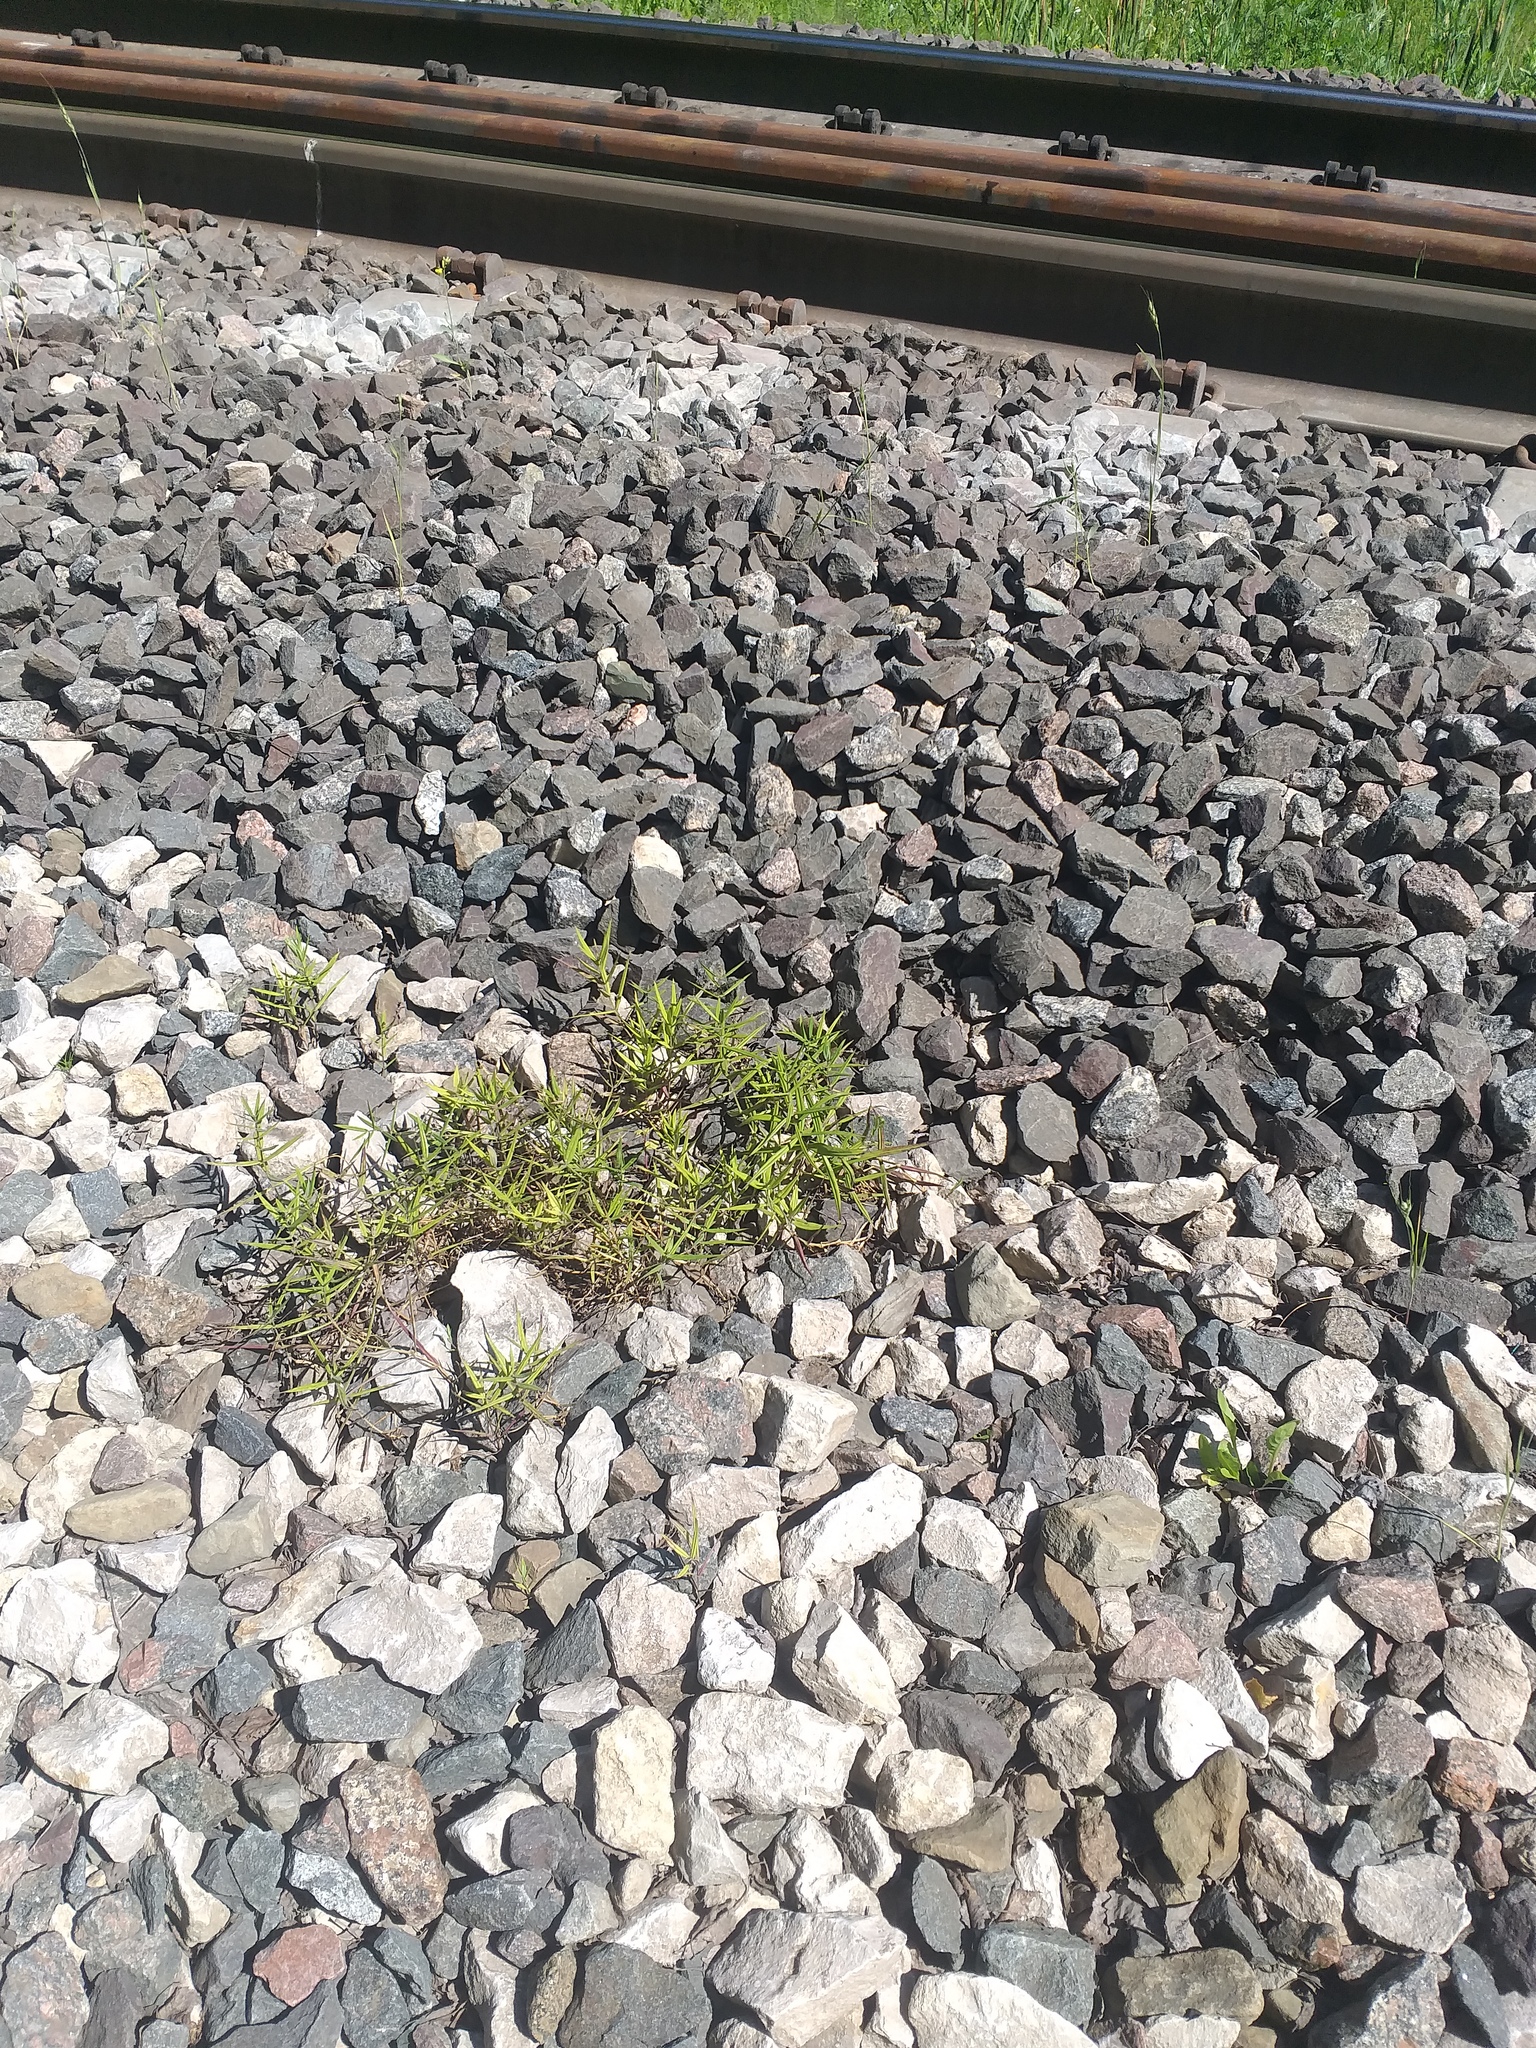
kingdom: Plantae
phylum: Tracheophyta
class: Magnoliopsida
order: Caryophyllales
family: Caryophyllaceae
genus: Rabelera
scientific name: Rabelera holostea
